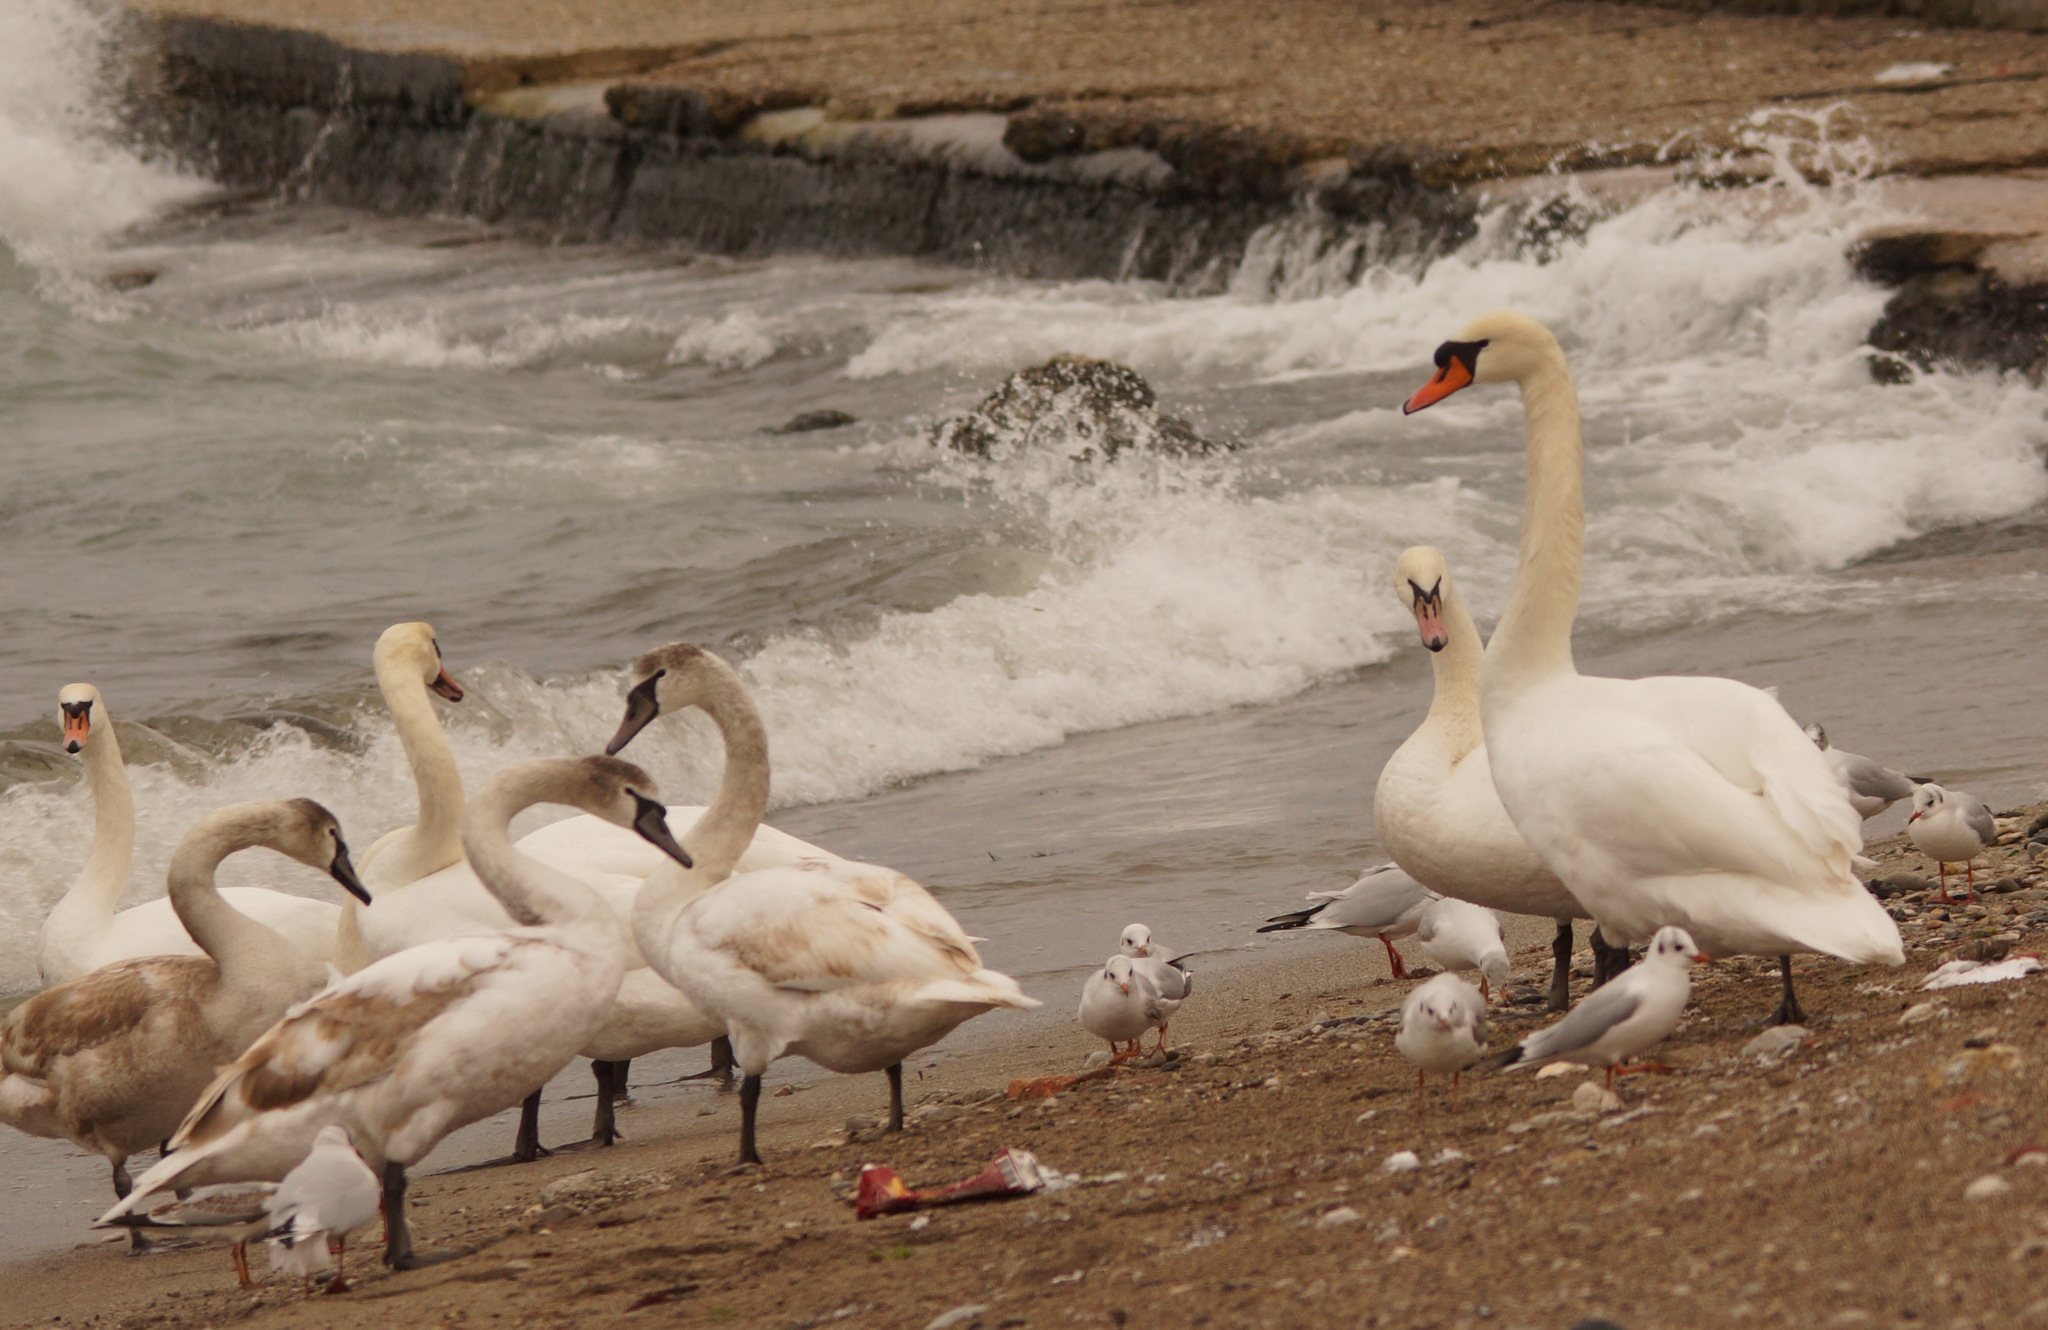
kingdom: Animalia
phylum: Chordata
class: Aves
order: Charadriiformes
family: Laridae
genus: Chroicocephalus
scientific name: Chroicocephalus ridibundus
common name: Black-headed gull
